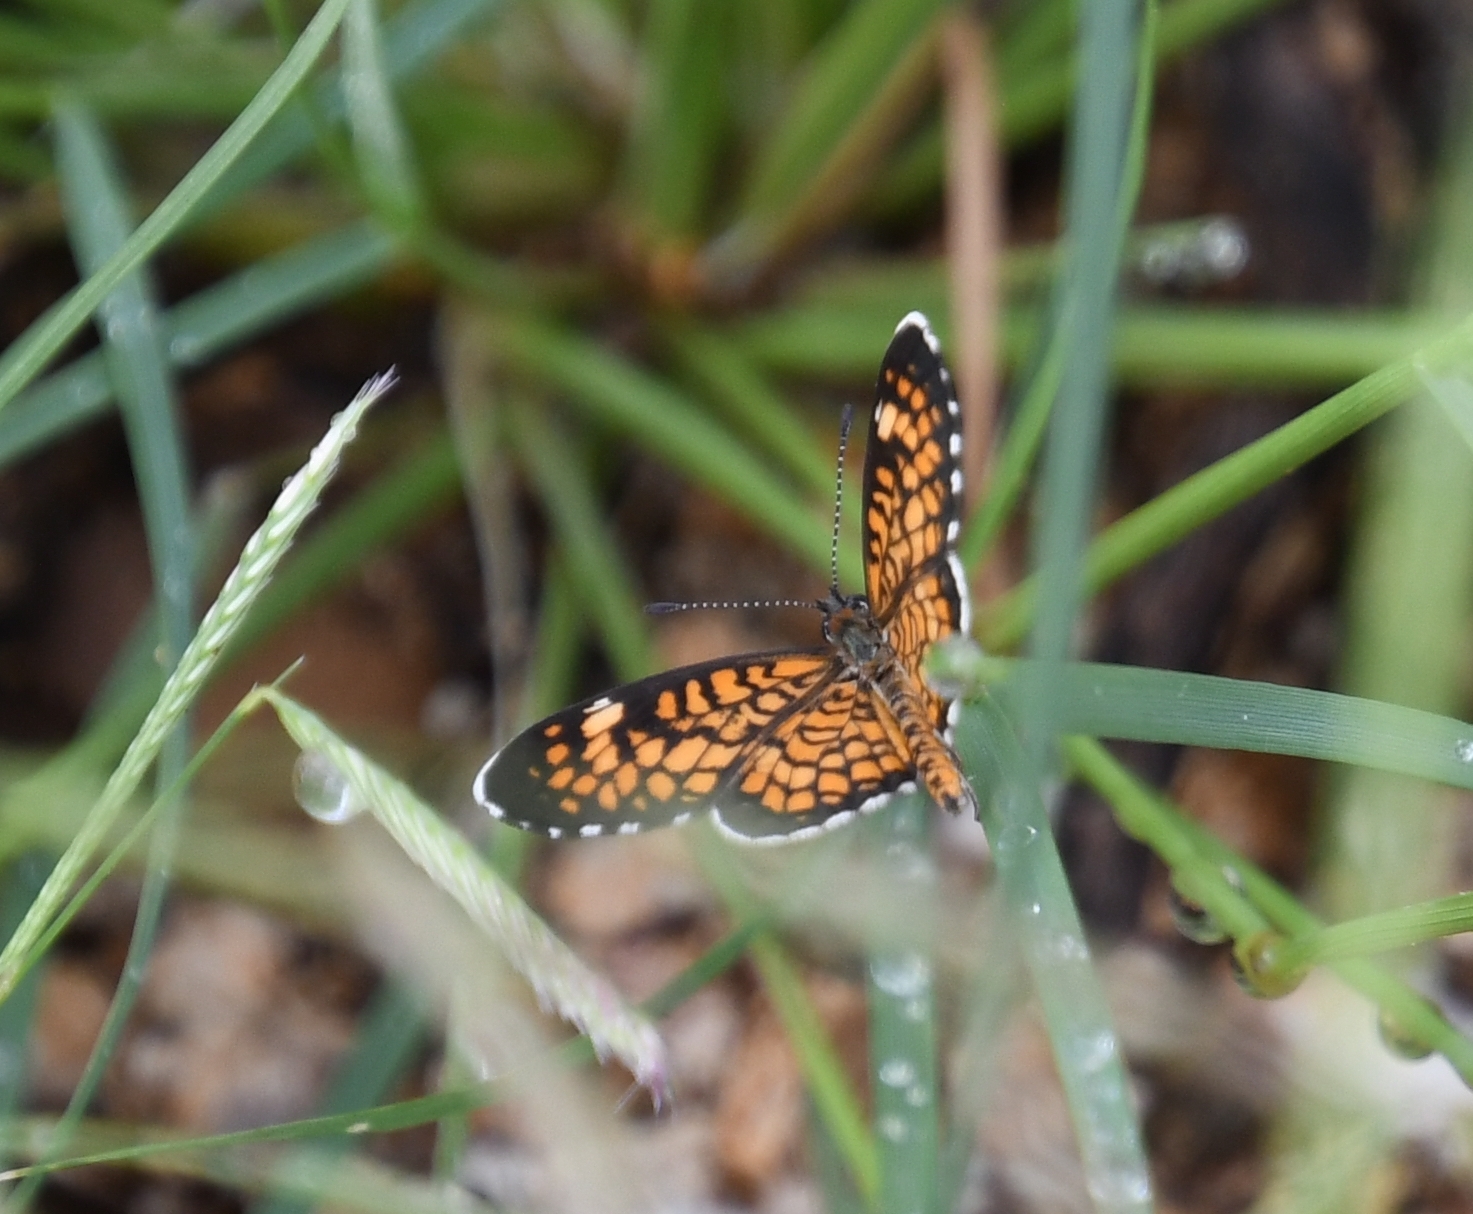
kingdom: Animalia
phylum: Arthropoda
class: Insecta
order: Lepidoptera
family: Nymphalidae
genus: Dymasia
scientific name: Dymasia dymas
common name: Tiny checkerspot
